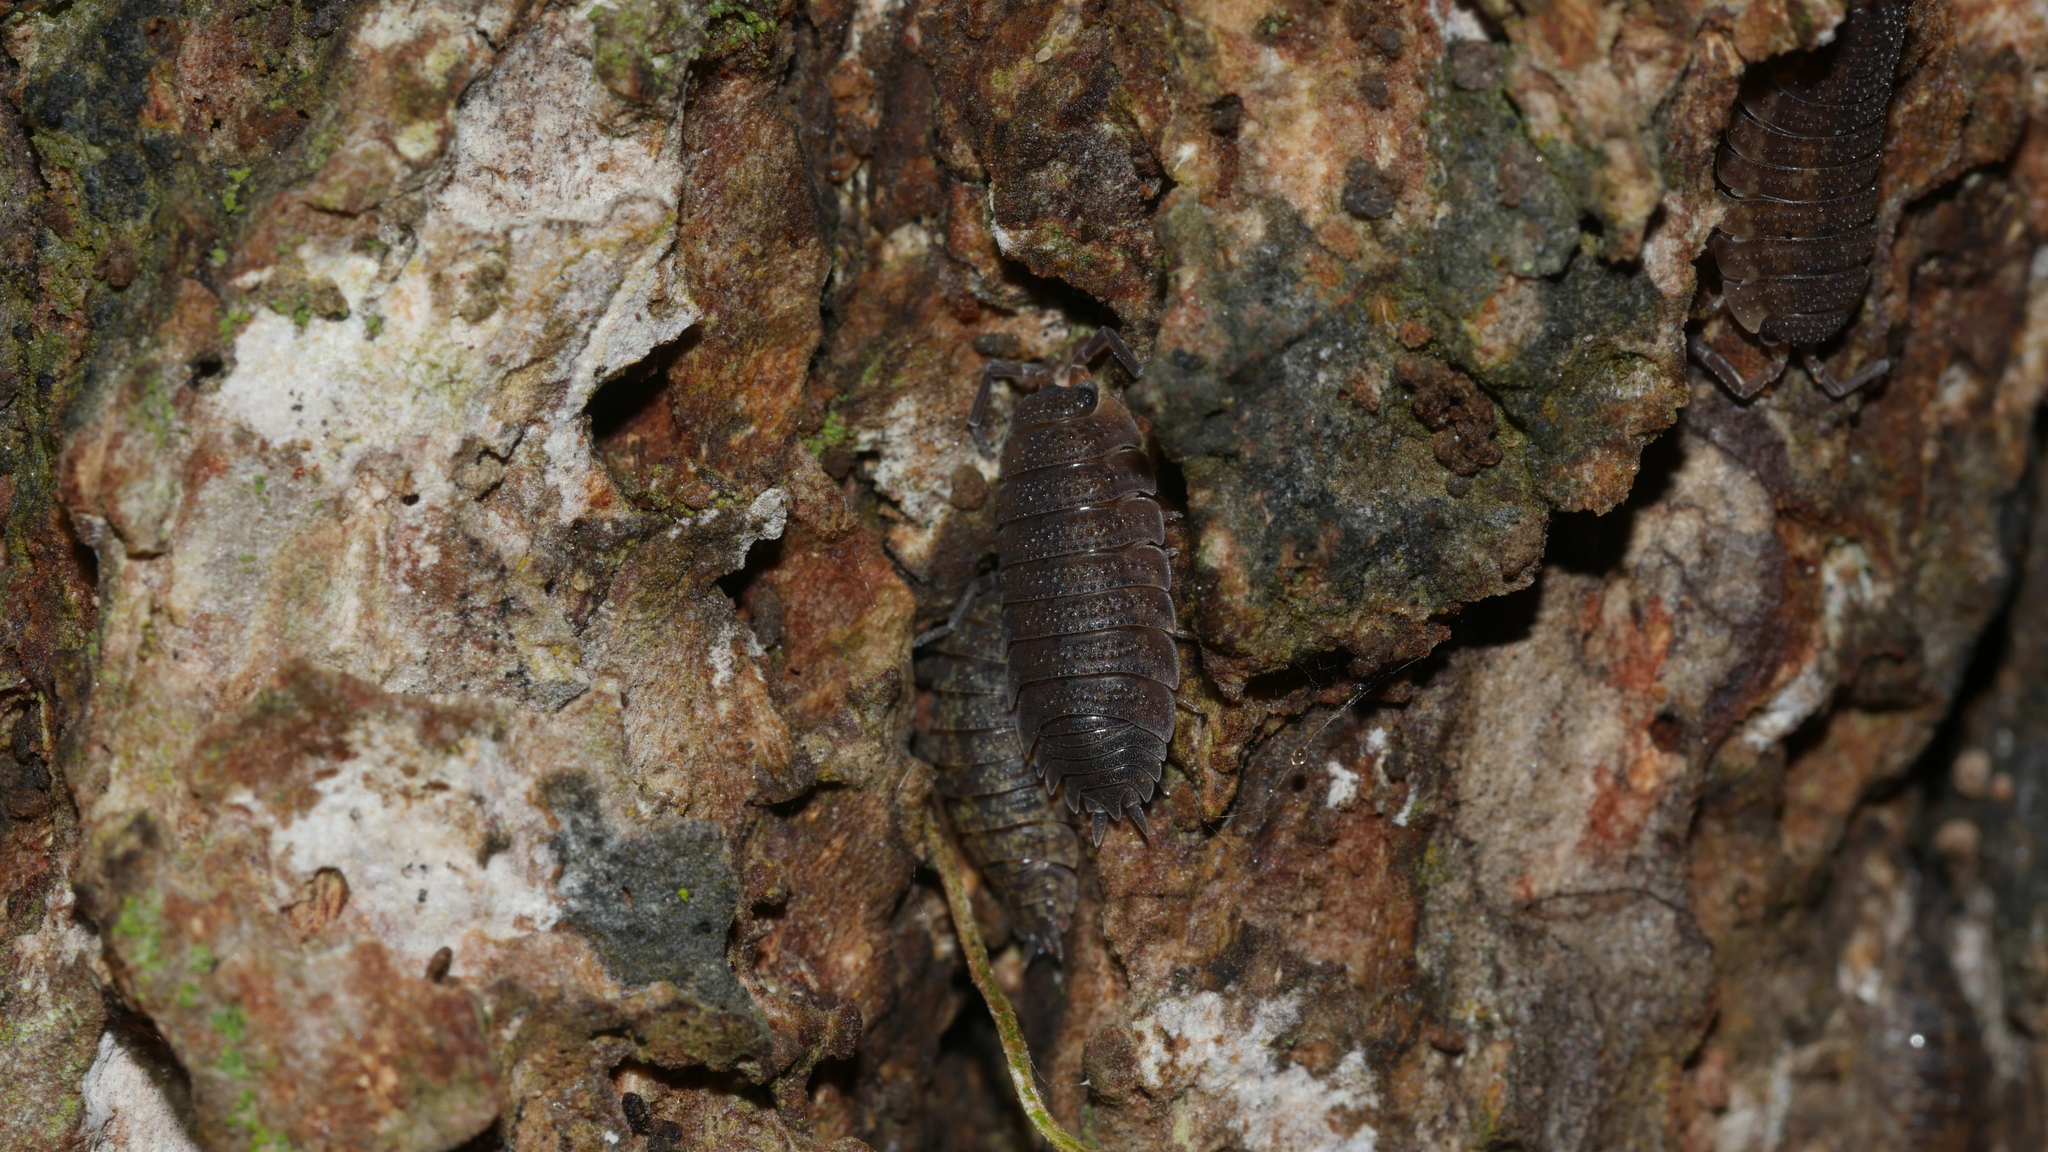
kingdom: Animalia
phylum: Arthropoda
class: Malacostraca
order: Isopoda
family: Porcellionidae
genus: Porcellio
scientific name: Porcellio scaber
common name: Common rough woodlouse
